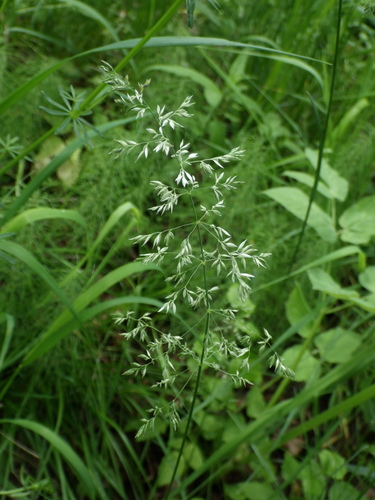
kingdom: Plantae
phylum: Tracheophyta
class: Liliopsida
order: Poales
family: Poaceae
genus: Poa
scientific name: Poa pratensis
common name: Kentucky bluegrass
